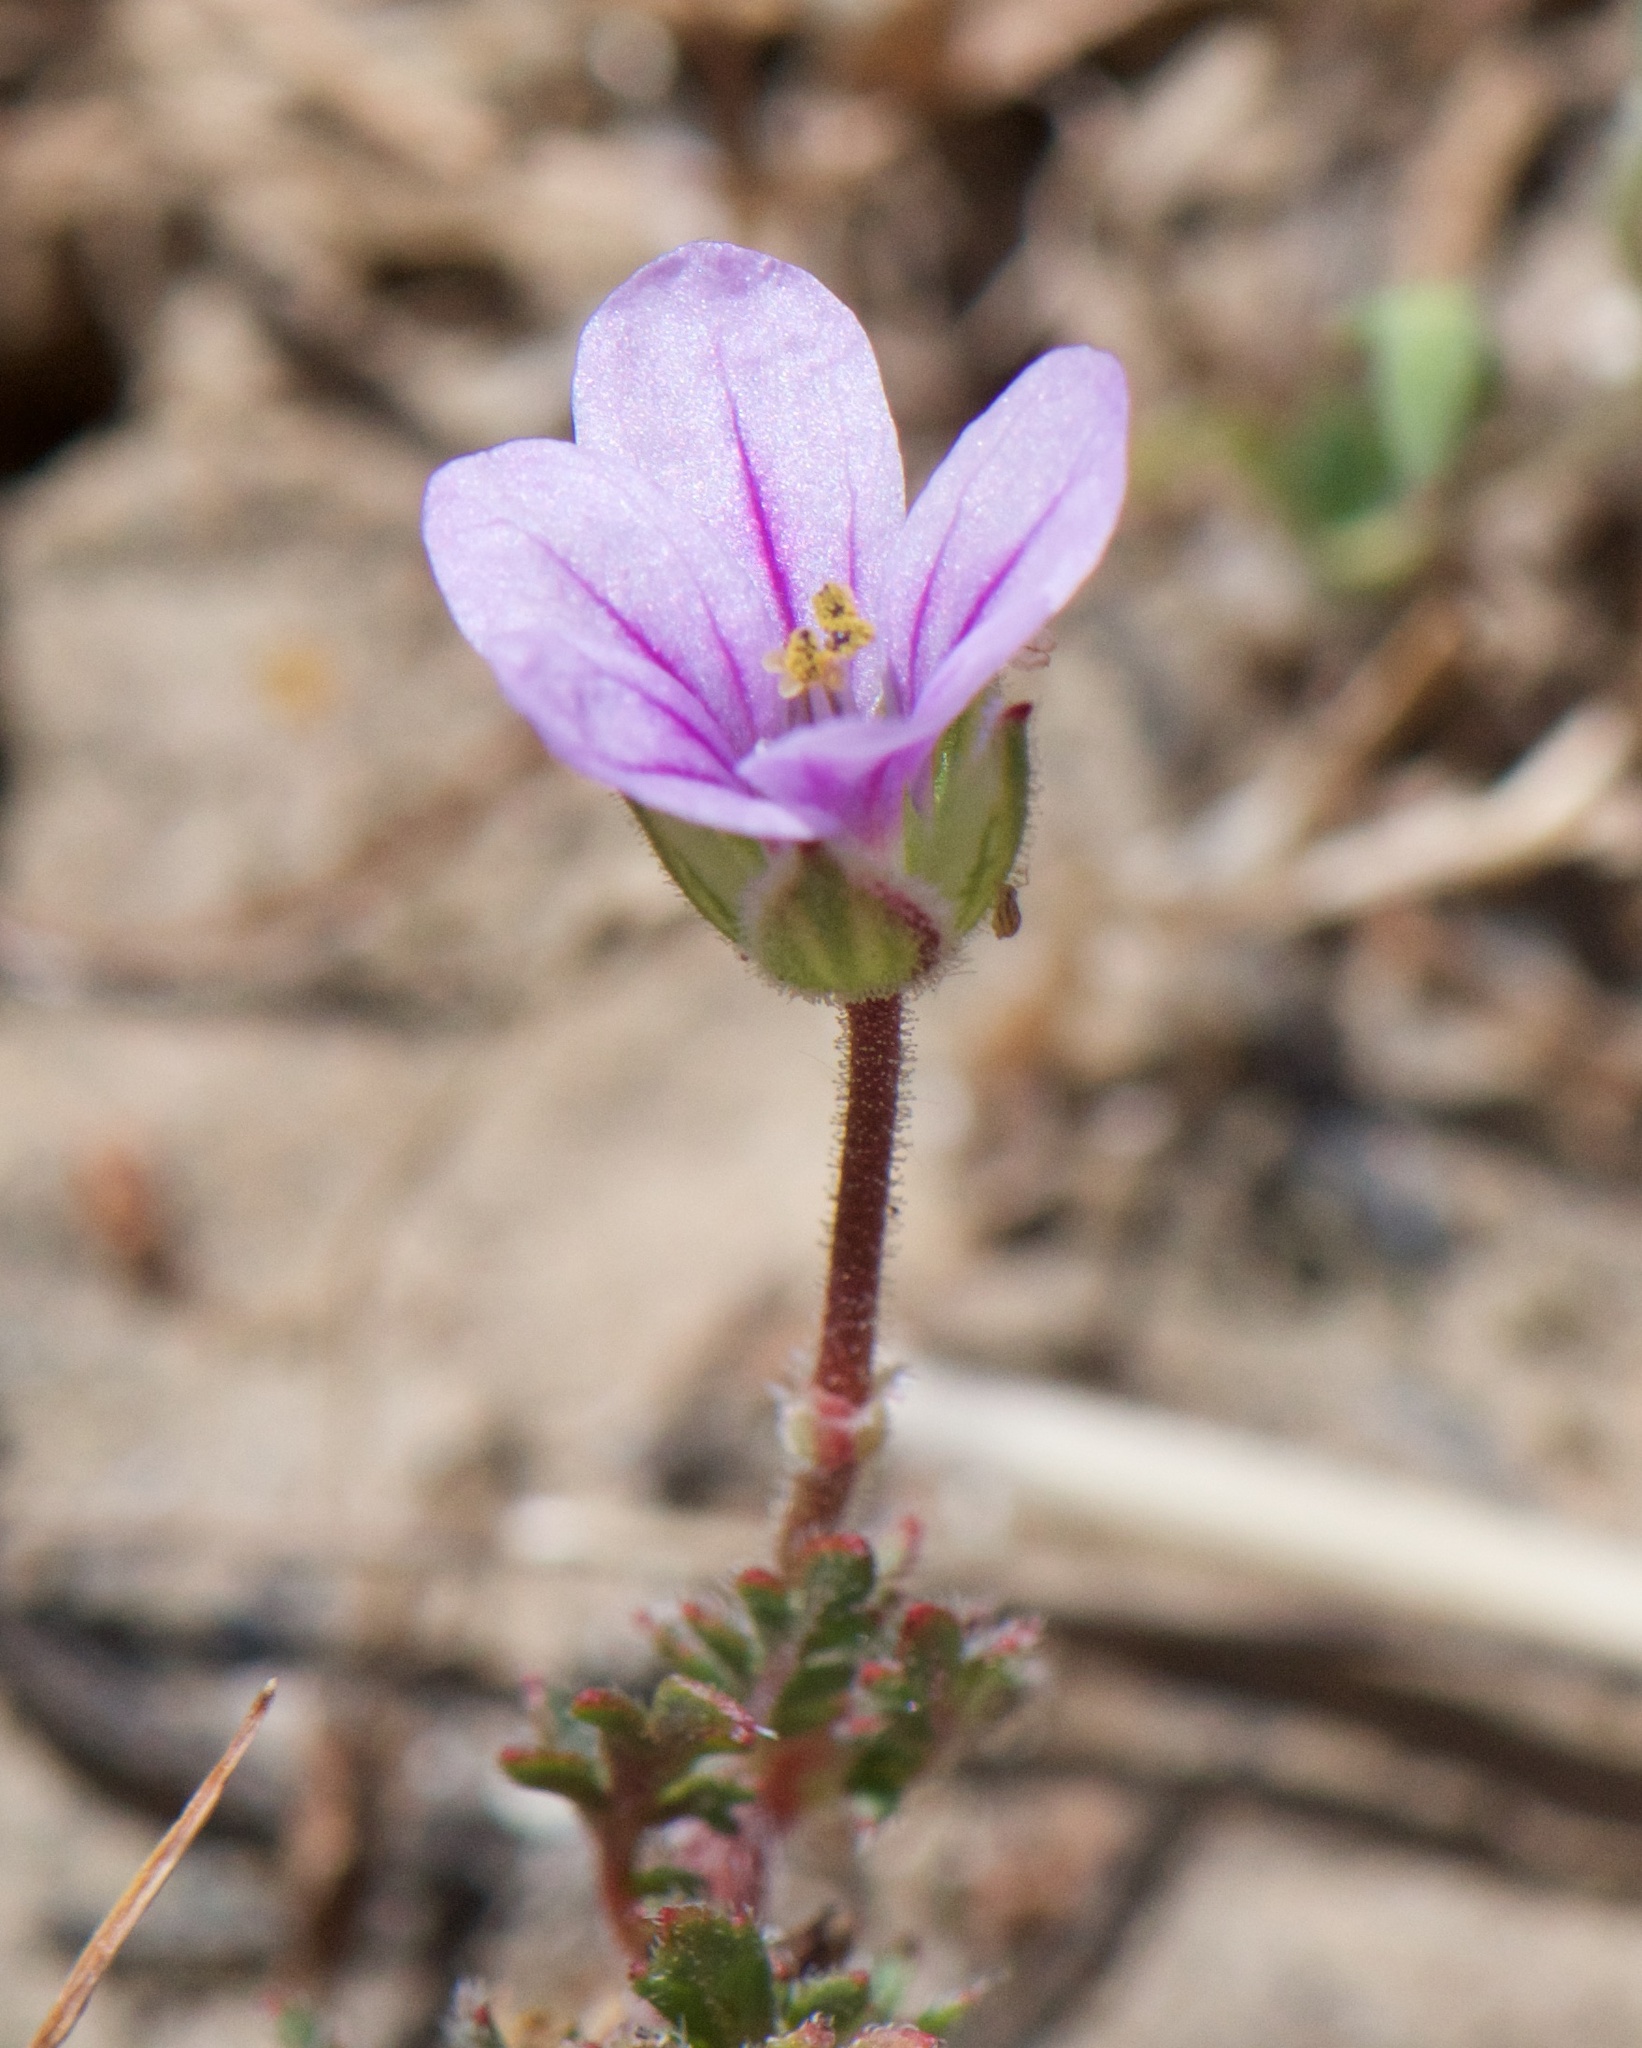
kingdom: Plantae
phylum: Tracheophyta
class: Magnoliopsida
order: Geraniales
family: Geraniaceae
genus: Erodium
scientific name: Erodium botrys
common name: Mediterranean stork's-bill
